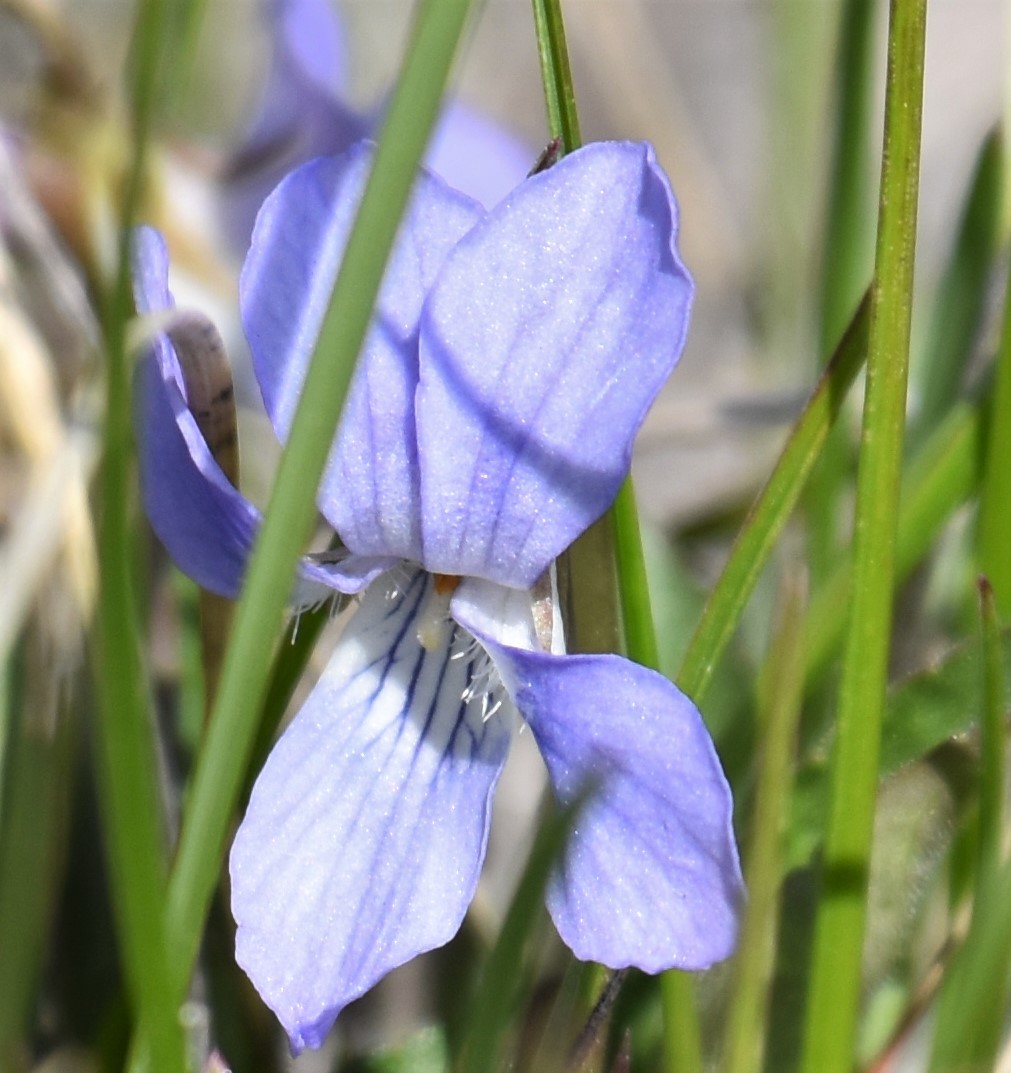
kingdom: Plantae
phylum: Tracheophyta
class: Magnoliopsida
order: Malpighiales
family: Violaceae
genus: Viola
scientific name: Viola adunca
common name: Sand violet
